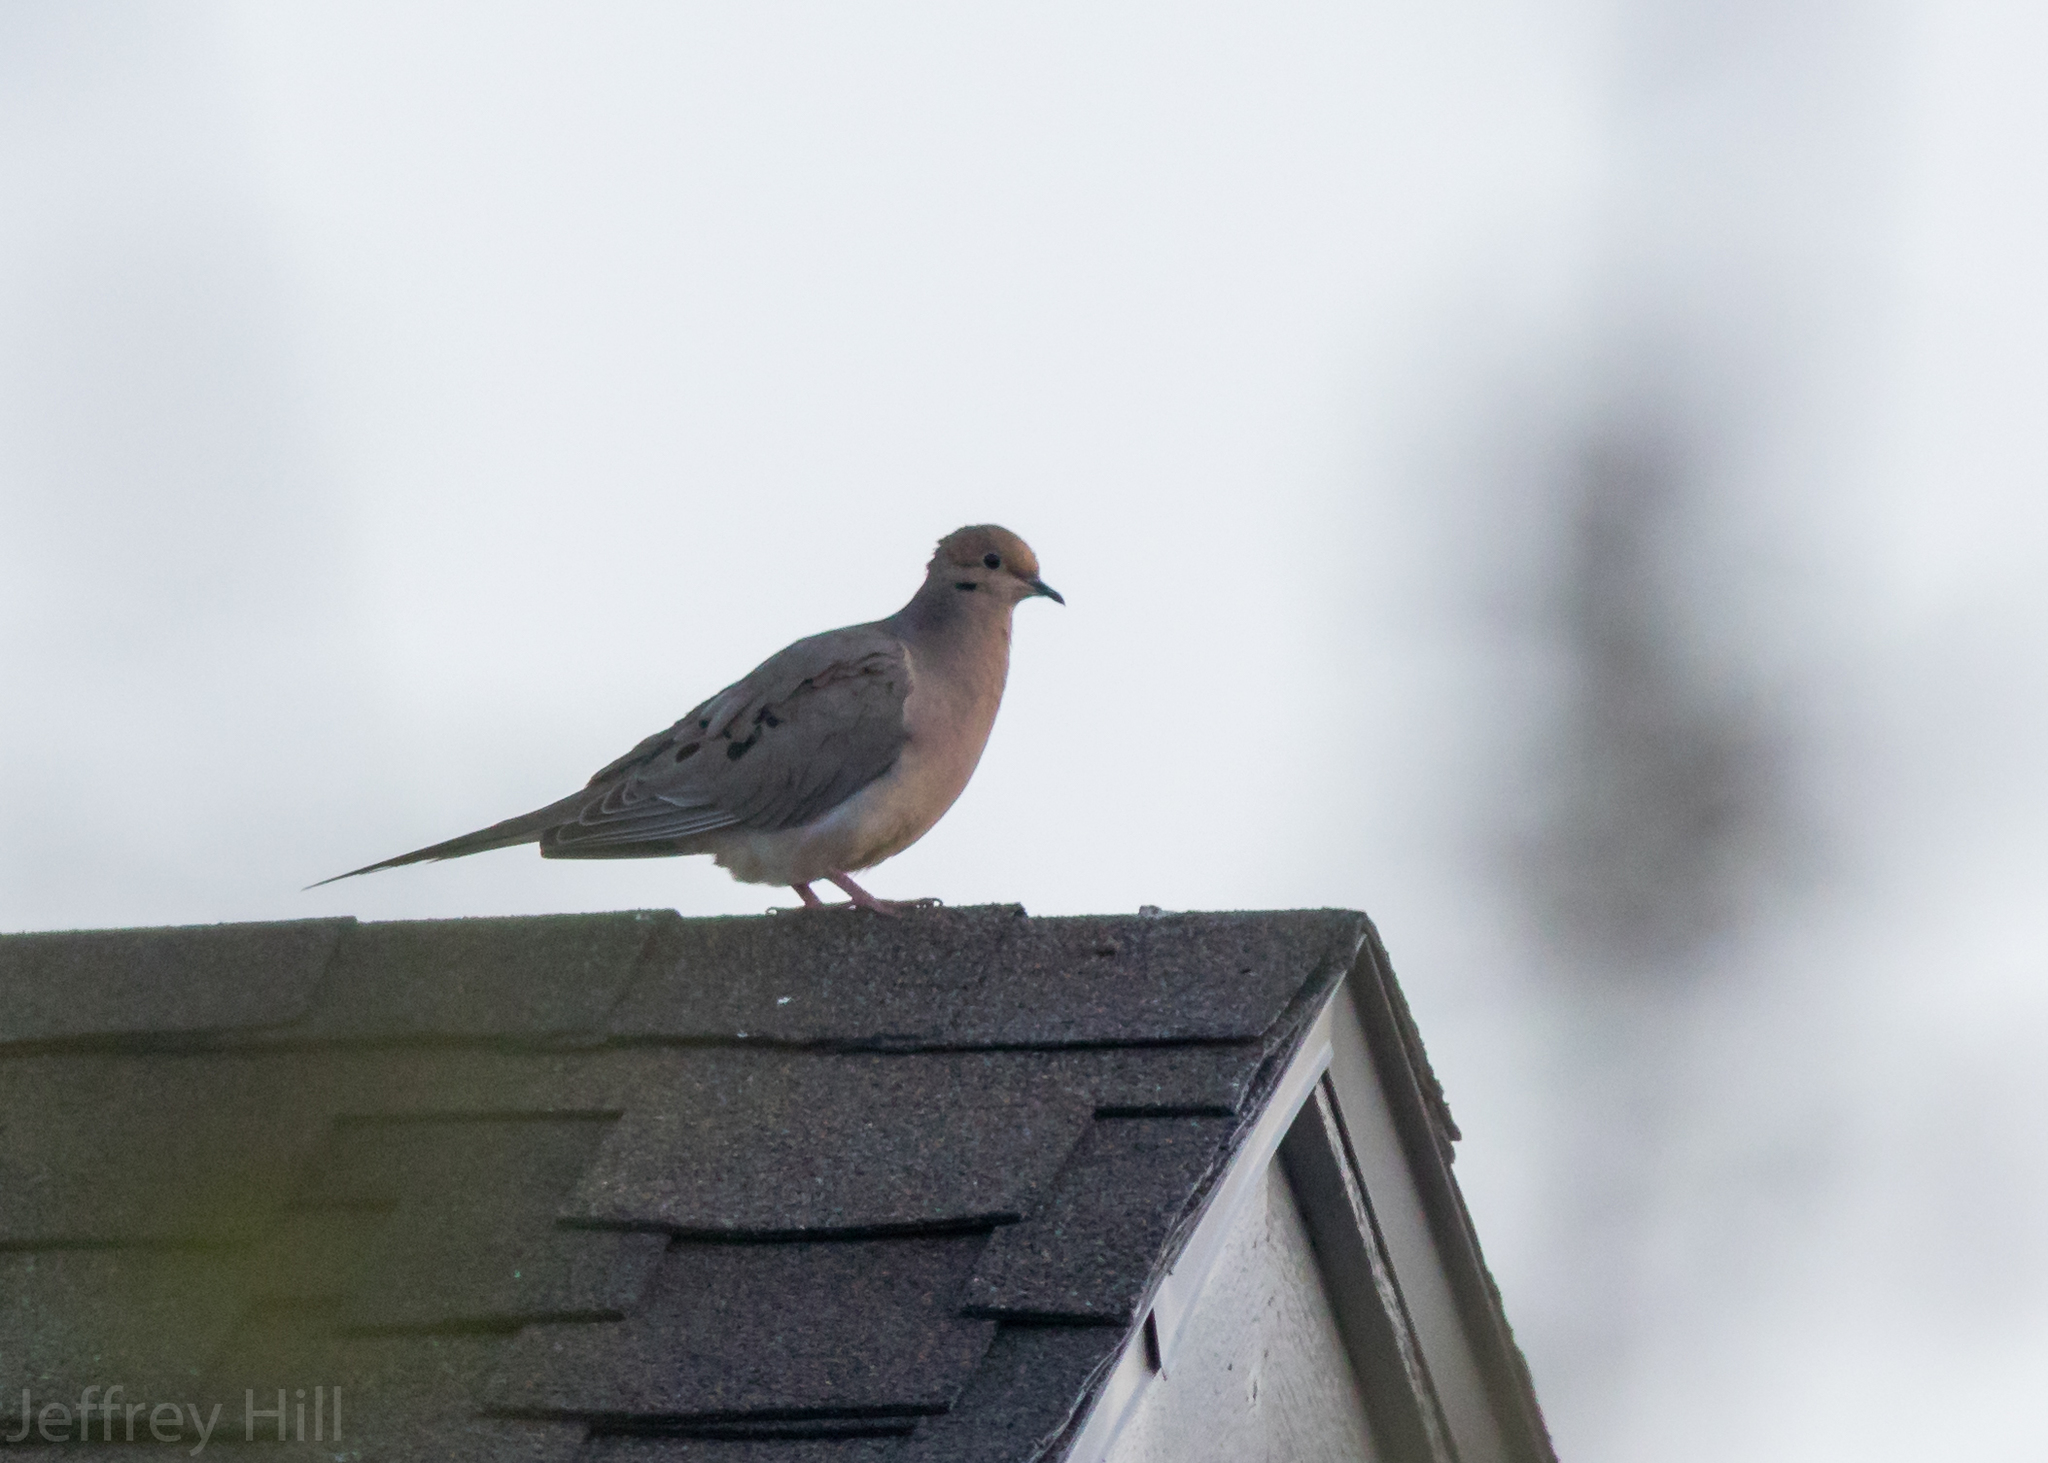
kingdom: Animalia
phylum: Chordata
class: Aves
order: Columbiformes
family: Columbidae
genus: Zenaida
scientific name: Zenaida macroura
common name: Mourning dove
